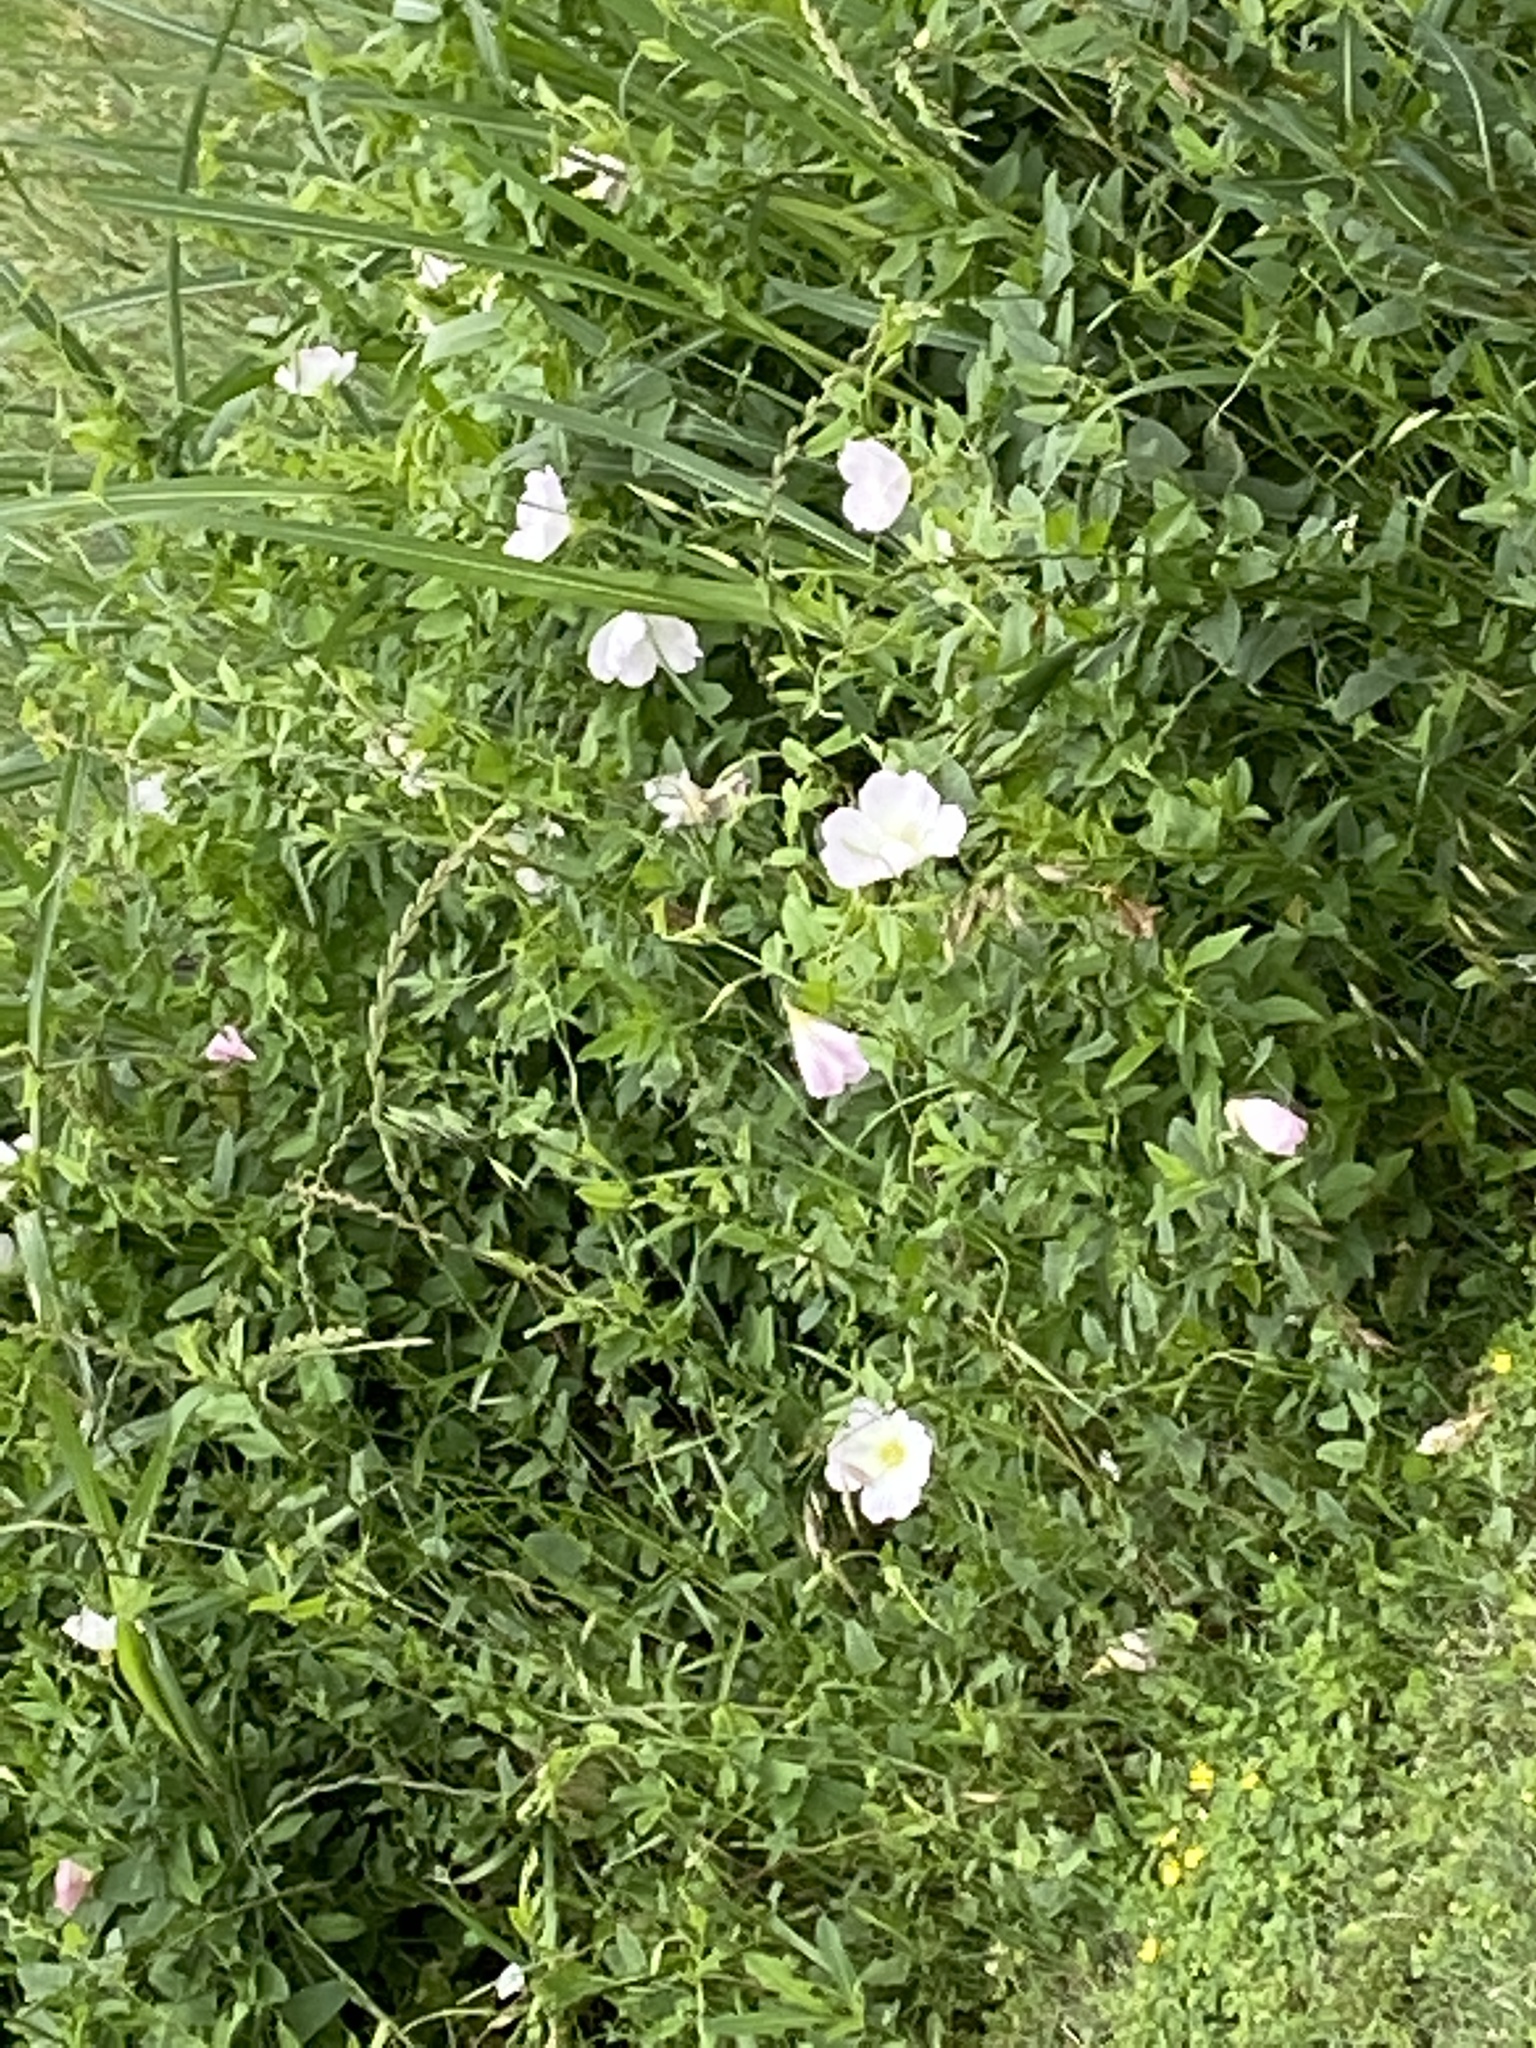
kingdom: Plantae
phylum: Tracheophyta
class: Magnoliopsida
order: Myrtales
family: Onagraceae
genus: Oenothera
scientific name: Oenothera speciosa
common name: White evening-primrose
